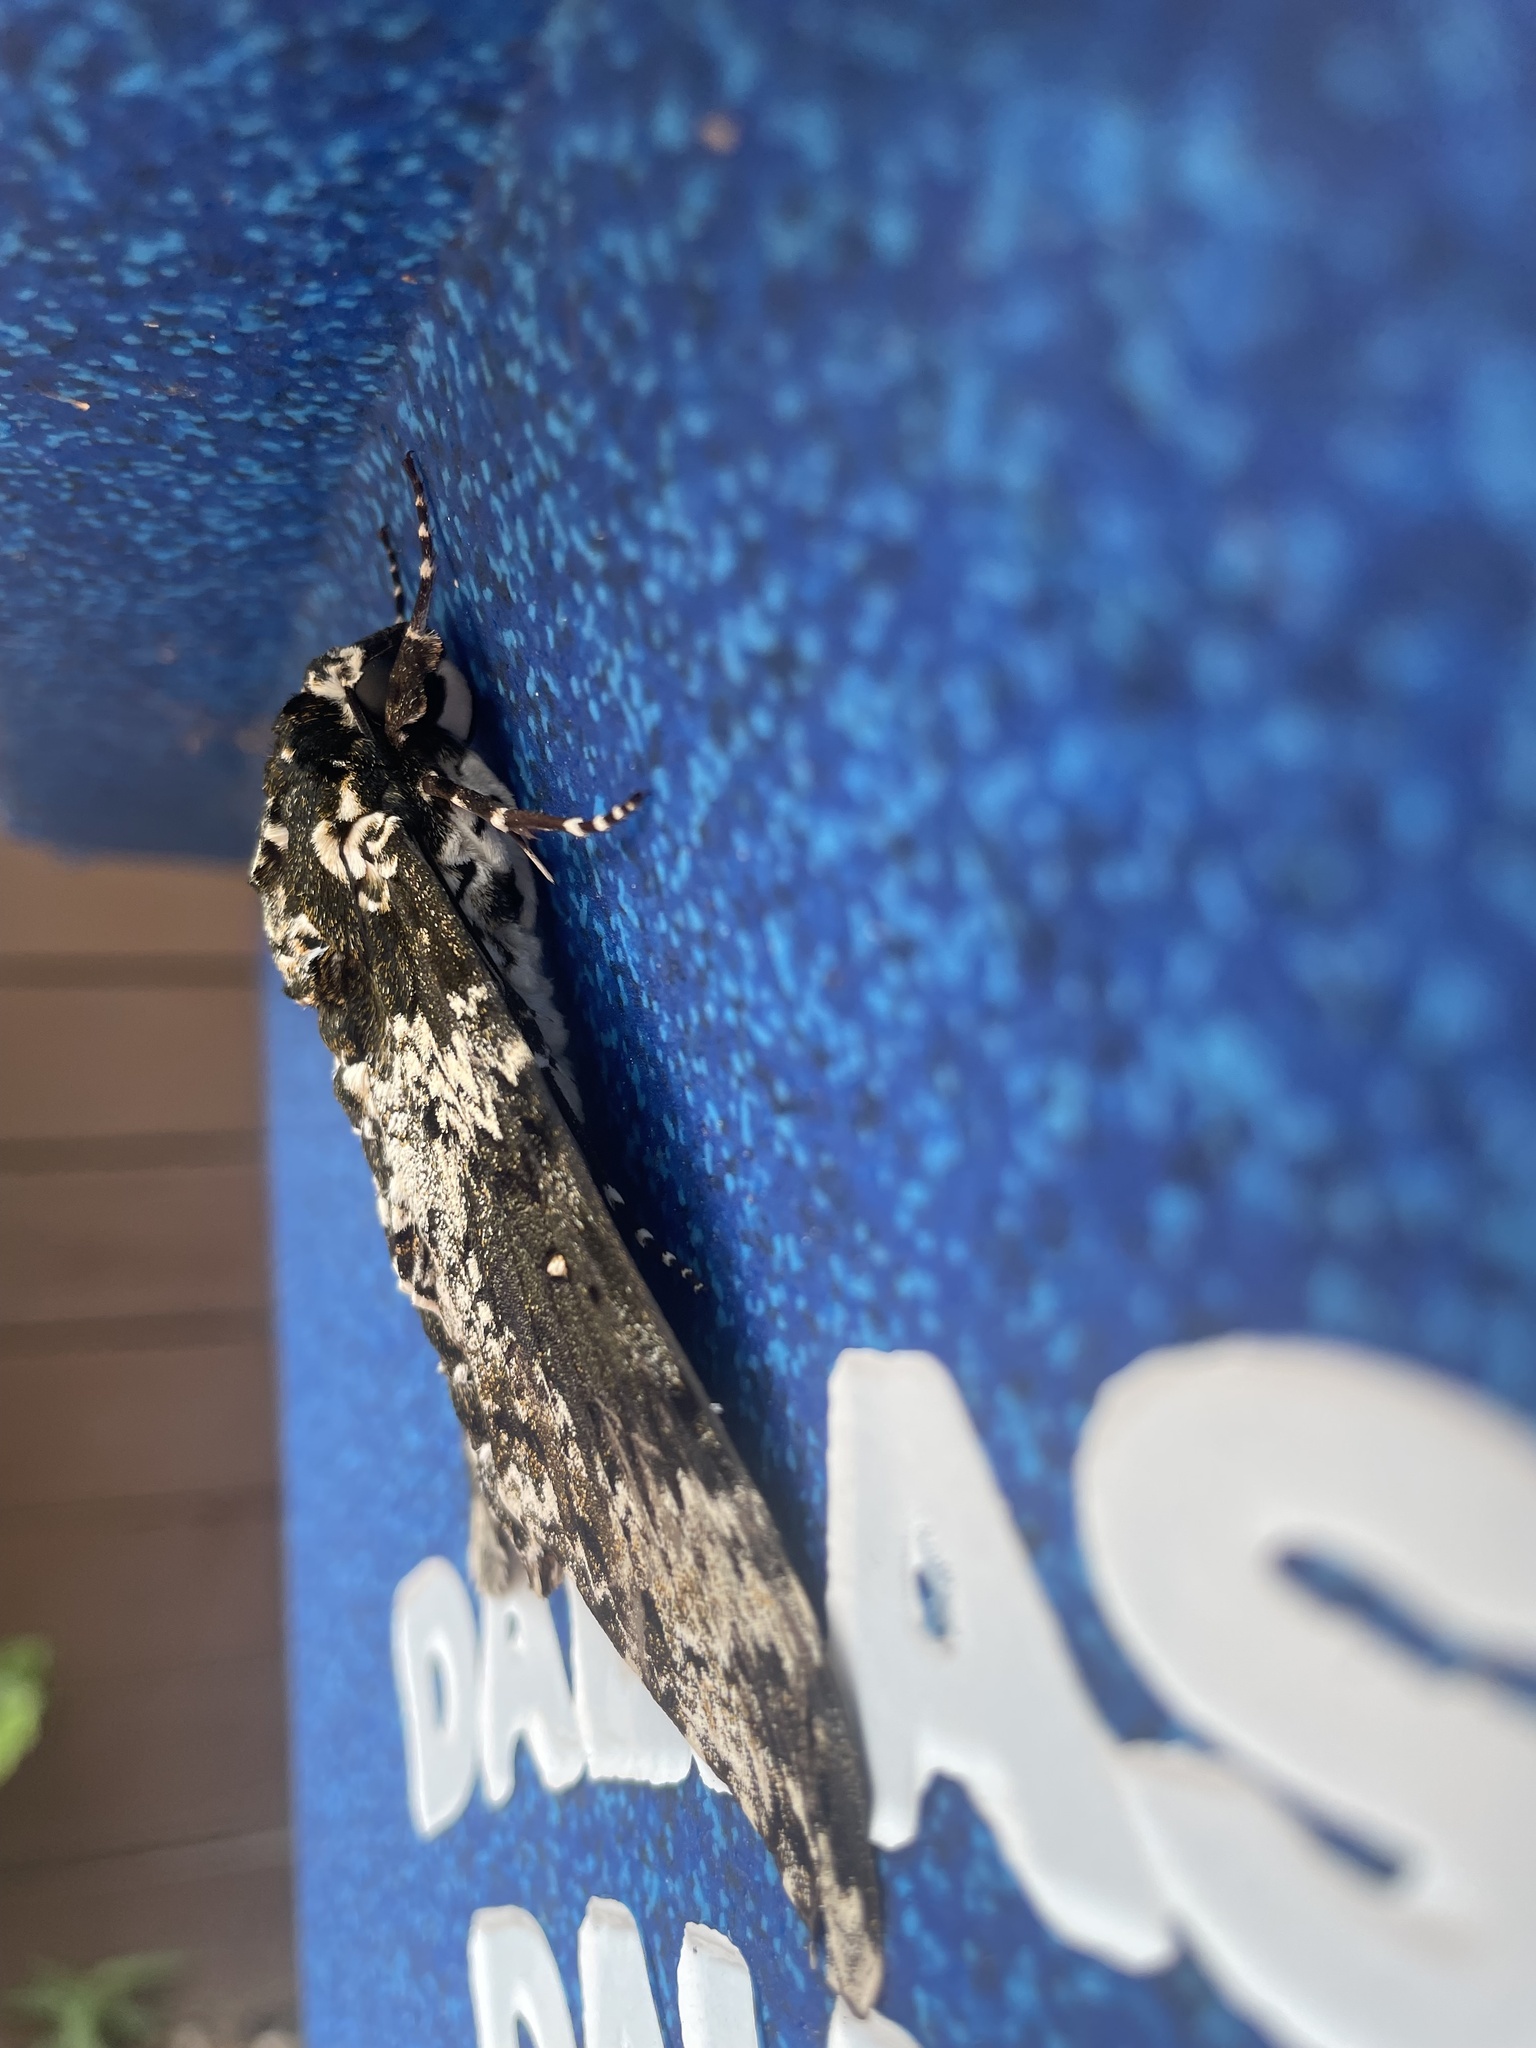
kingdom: Animalia
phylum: Arthropoda
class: Insecta
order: Lepidoptera
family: Sphingidae
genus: Manduca
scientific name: Manduca rustica
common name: Rustic sphinx
